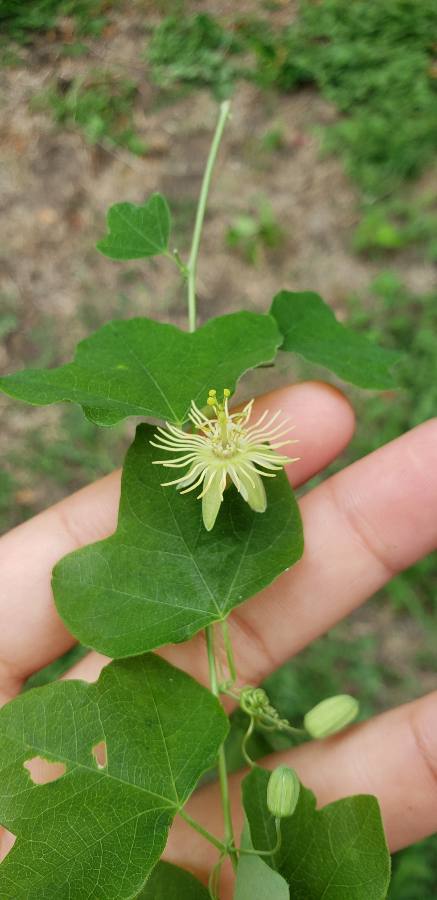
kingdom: Plantae
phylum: Tracheophyta
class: Magnoliopsida
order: Malpighiales
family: Passifloraceae
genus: Passiflora
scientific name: Passiflora lutea
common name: Yellow passionflower
